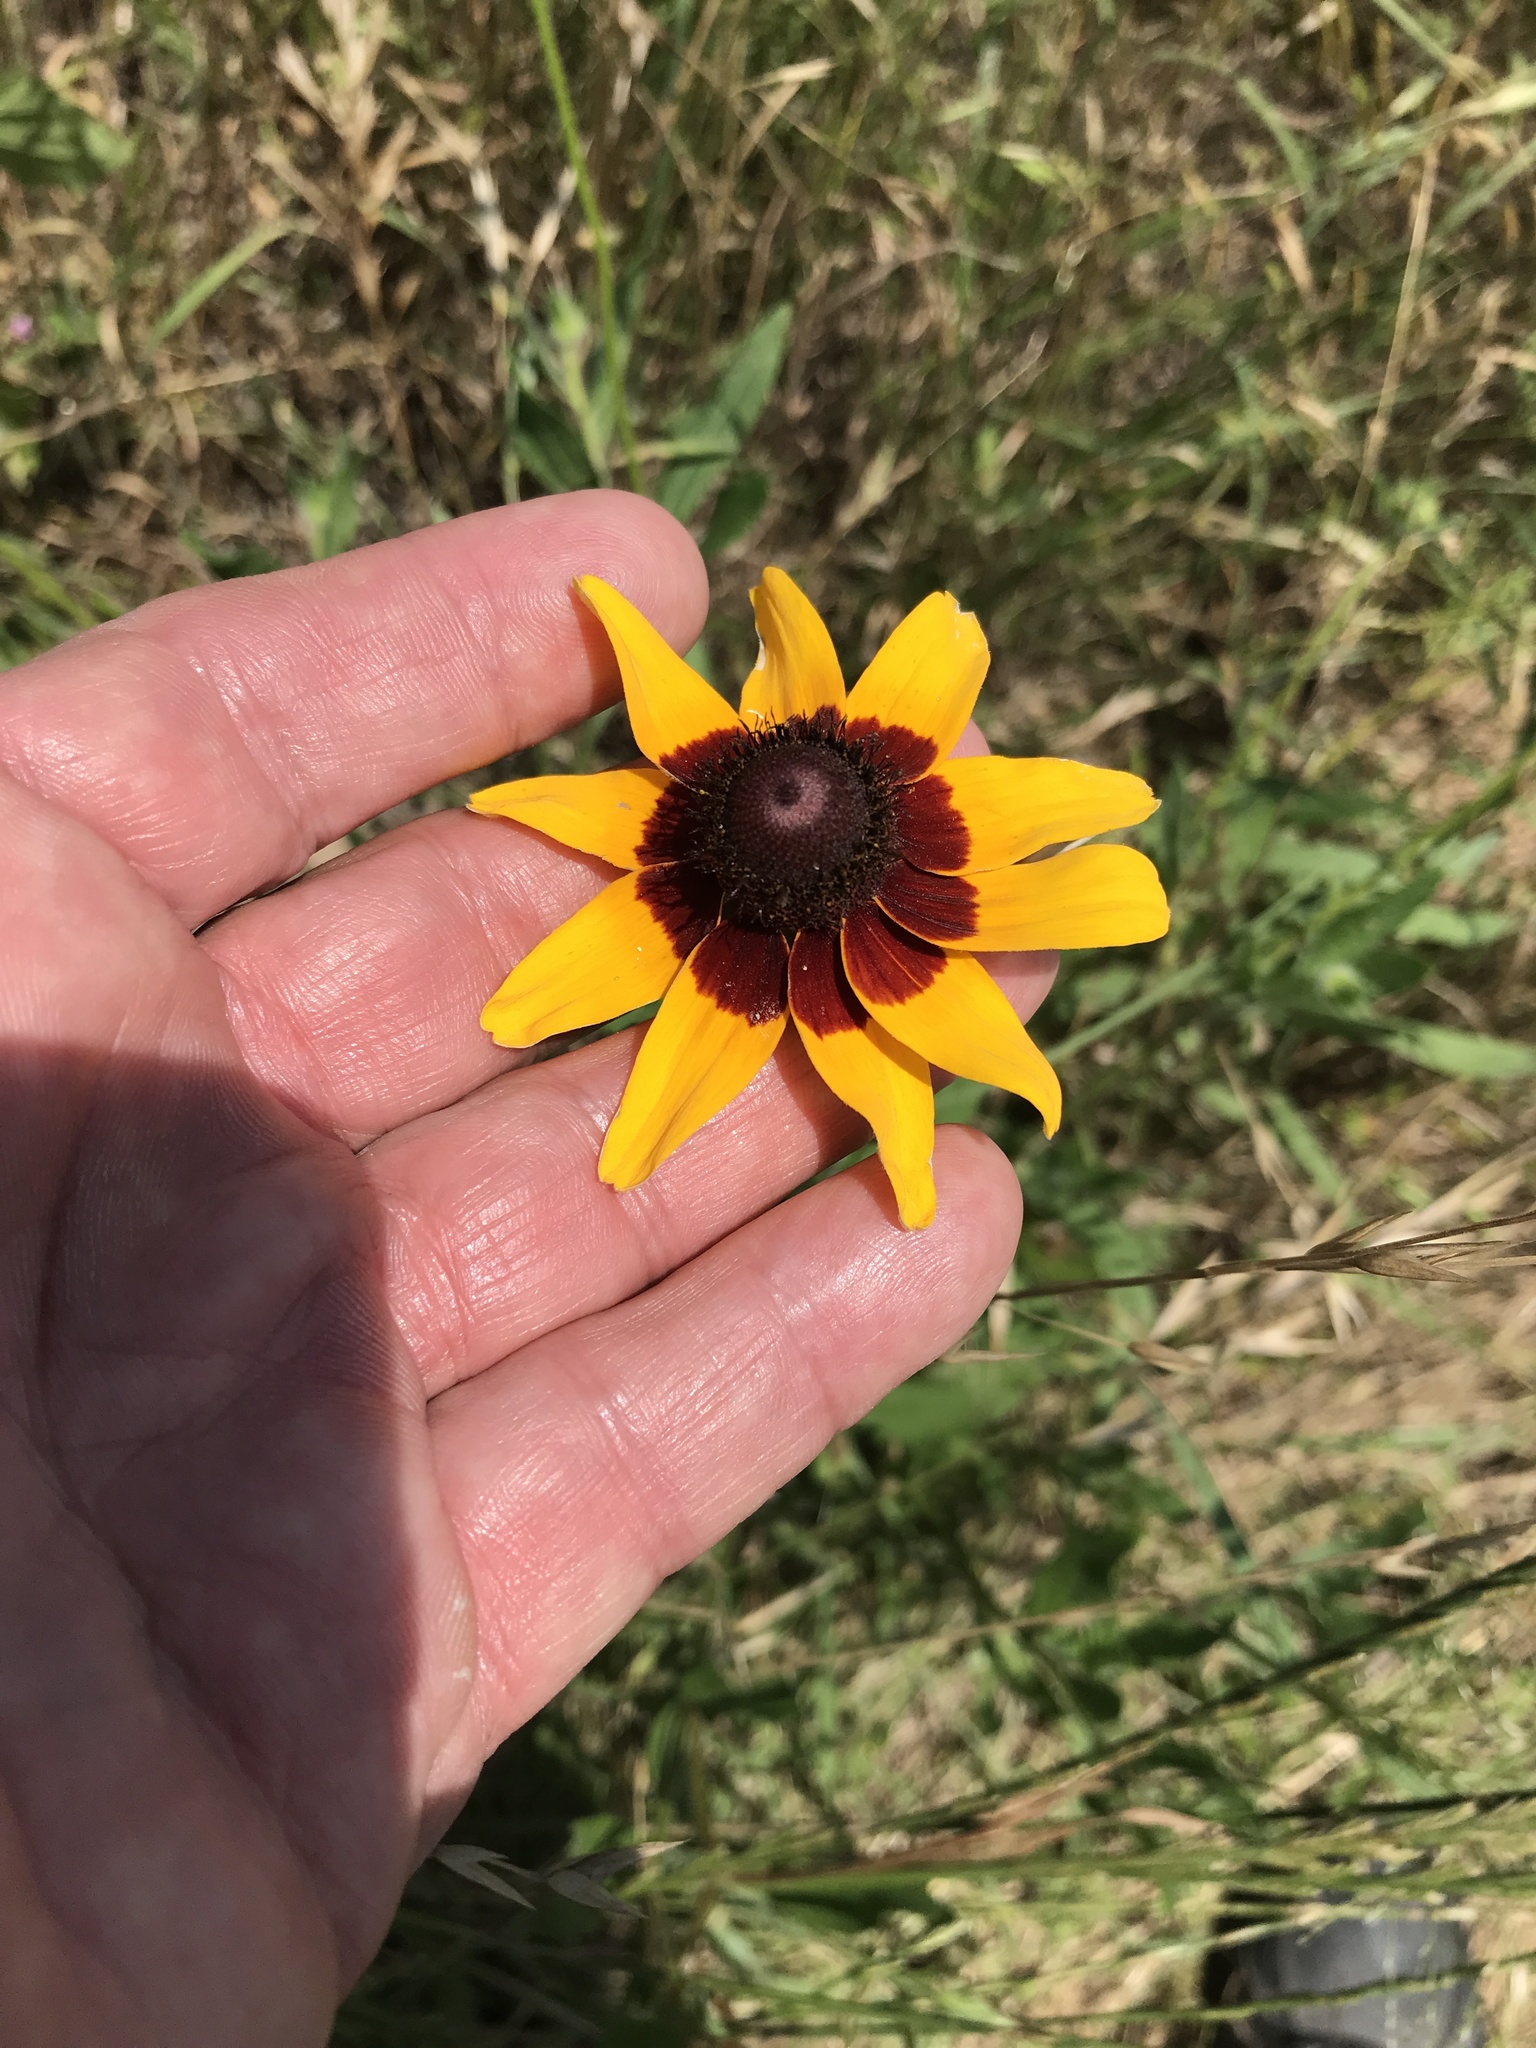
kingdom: Plantae
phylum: Tracheophyta
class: Magnoliopsida
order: Asterales
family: Asteraceae
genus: Rudbeckia
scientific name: Rudbeckia hirta
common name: Black-eyed-susan
